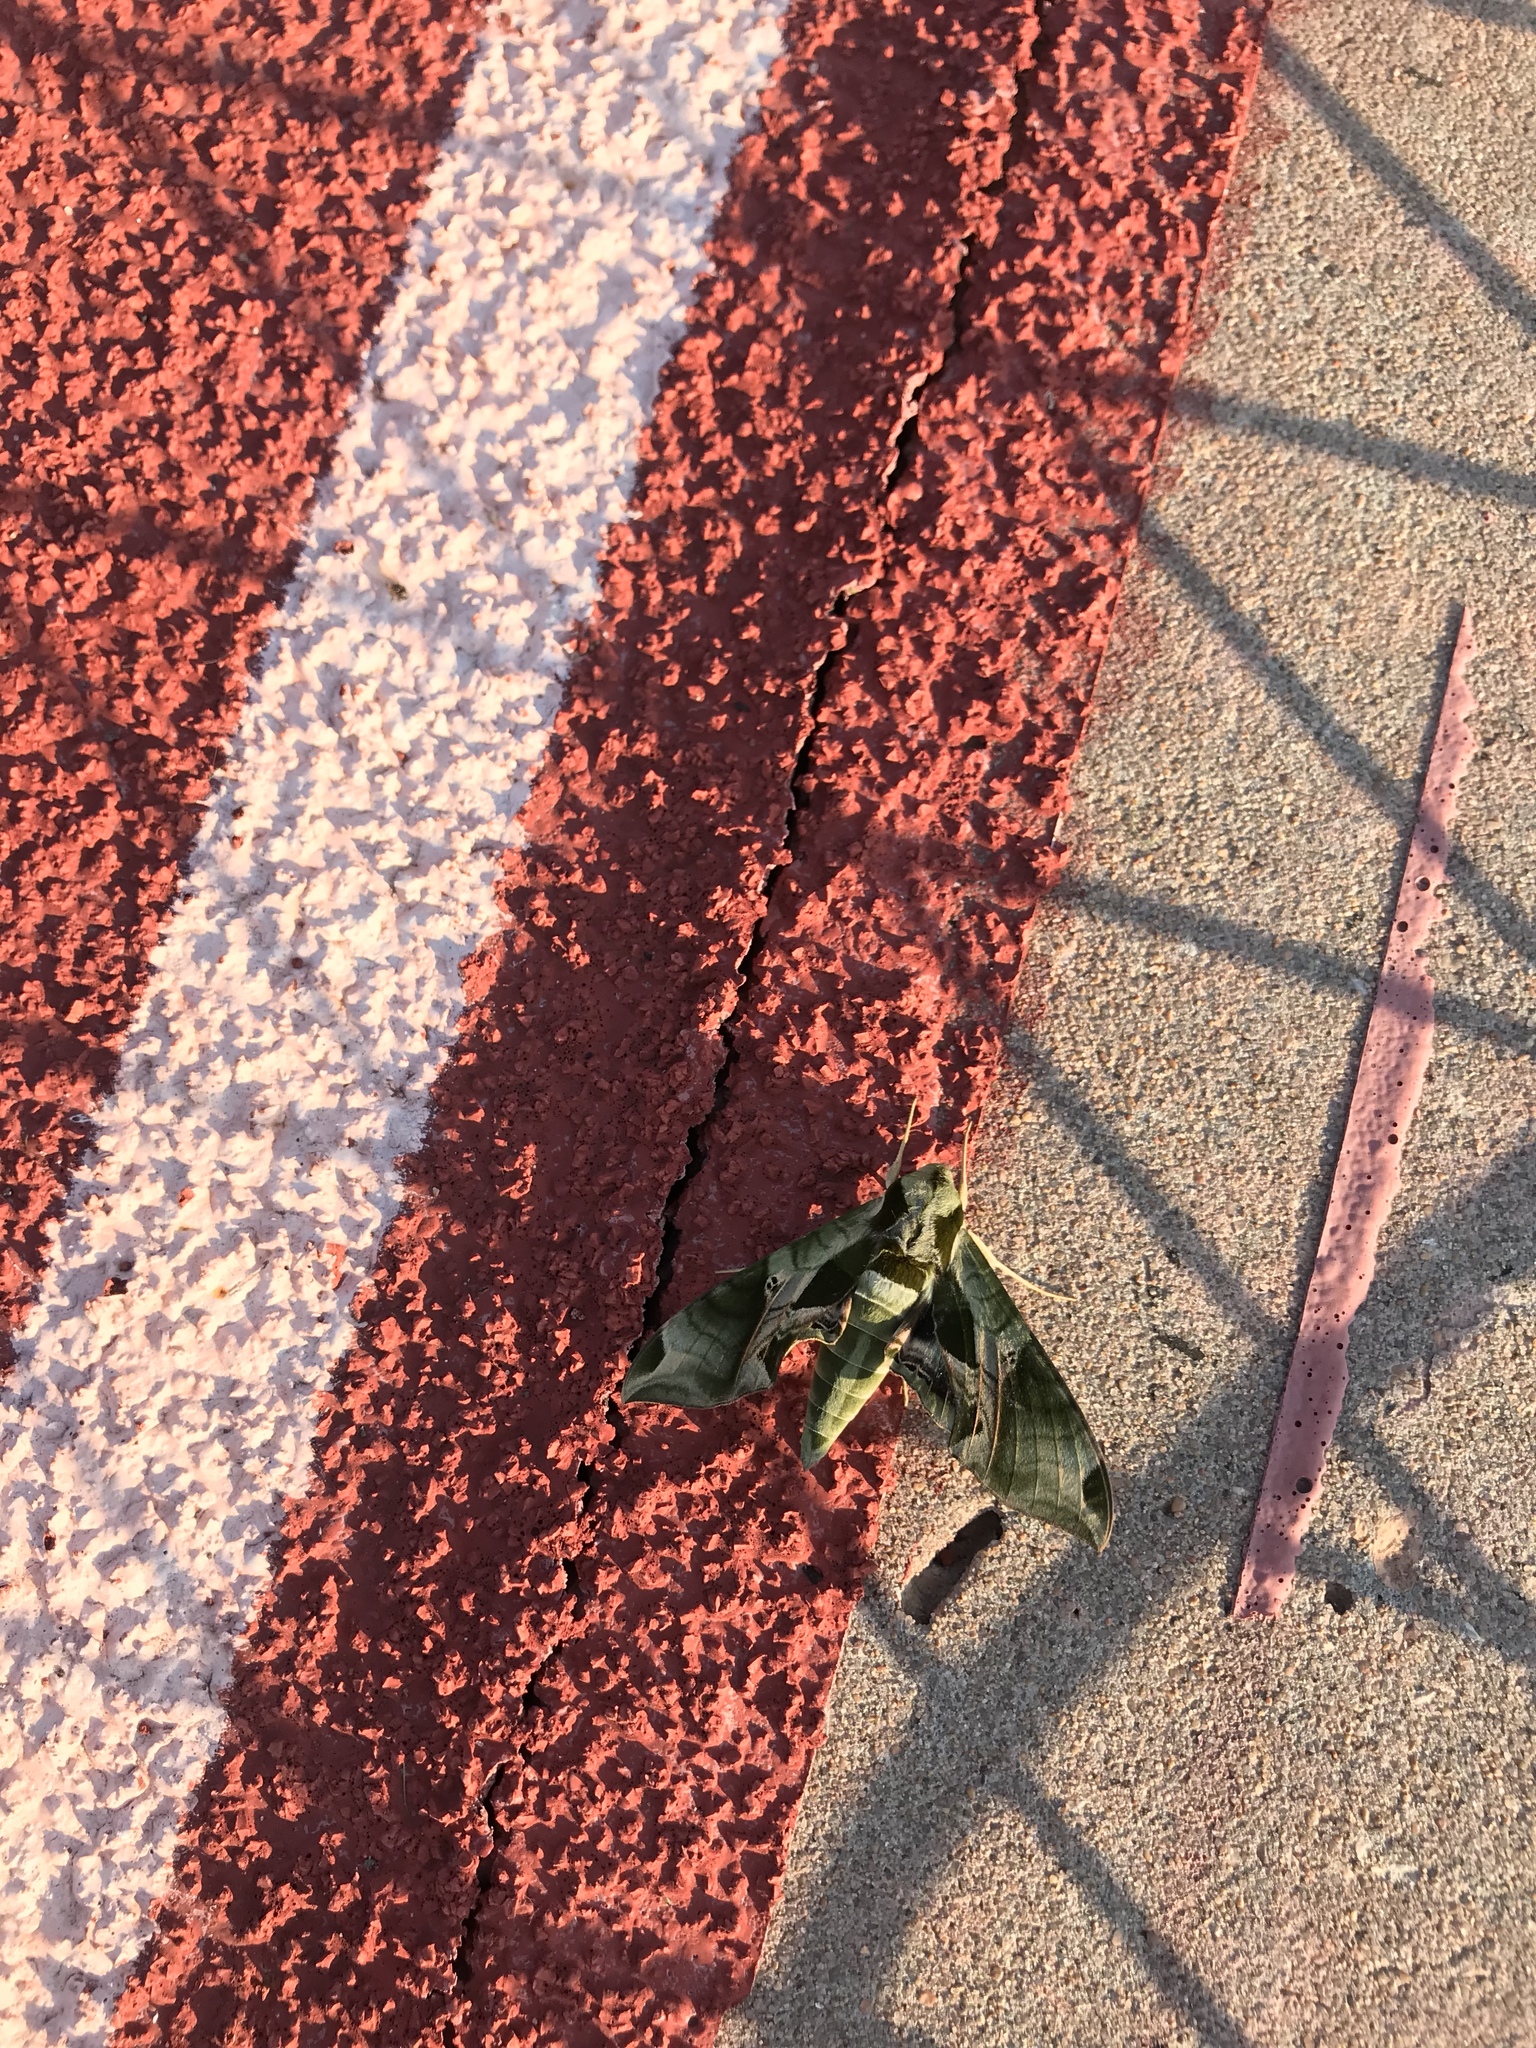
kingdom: Animalia
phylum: Arthropoda
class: Insecta
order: Lepidoptera
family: Sphingidae
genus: Eumorpha
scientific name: Eumorpha pandorus
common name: Pandora sphinx
